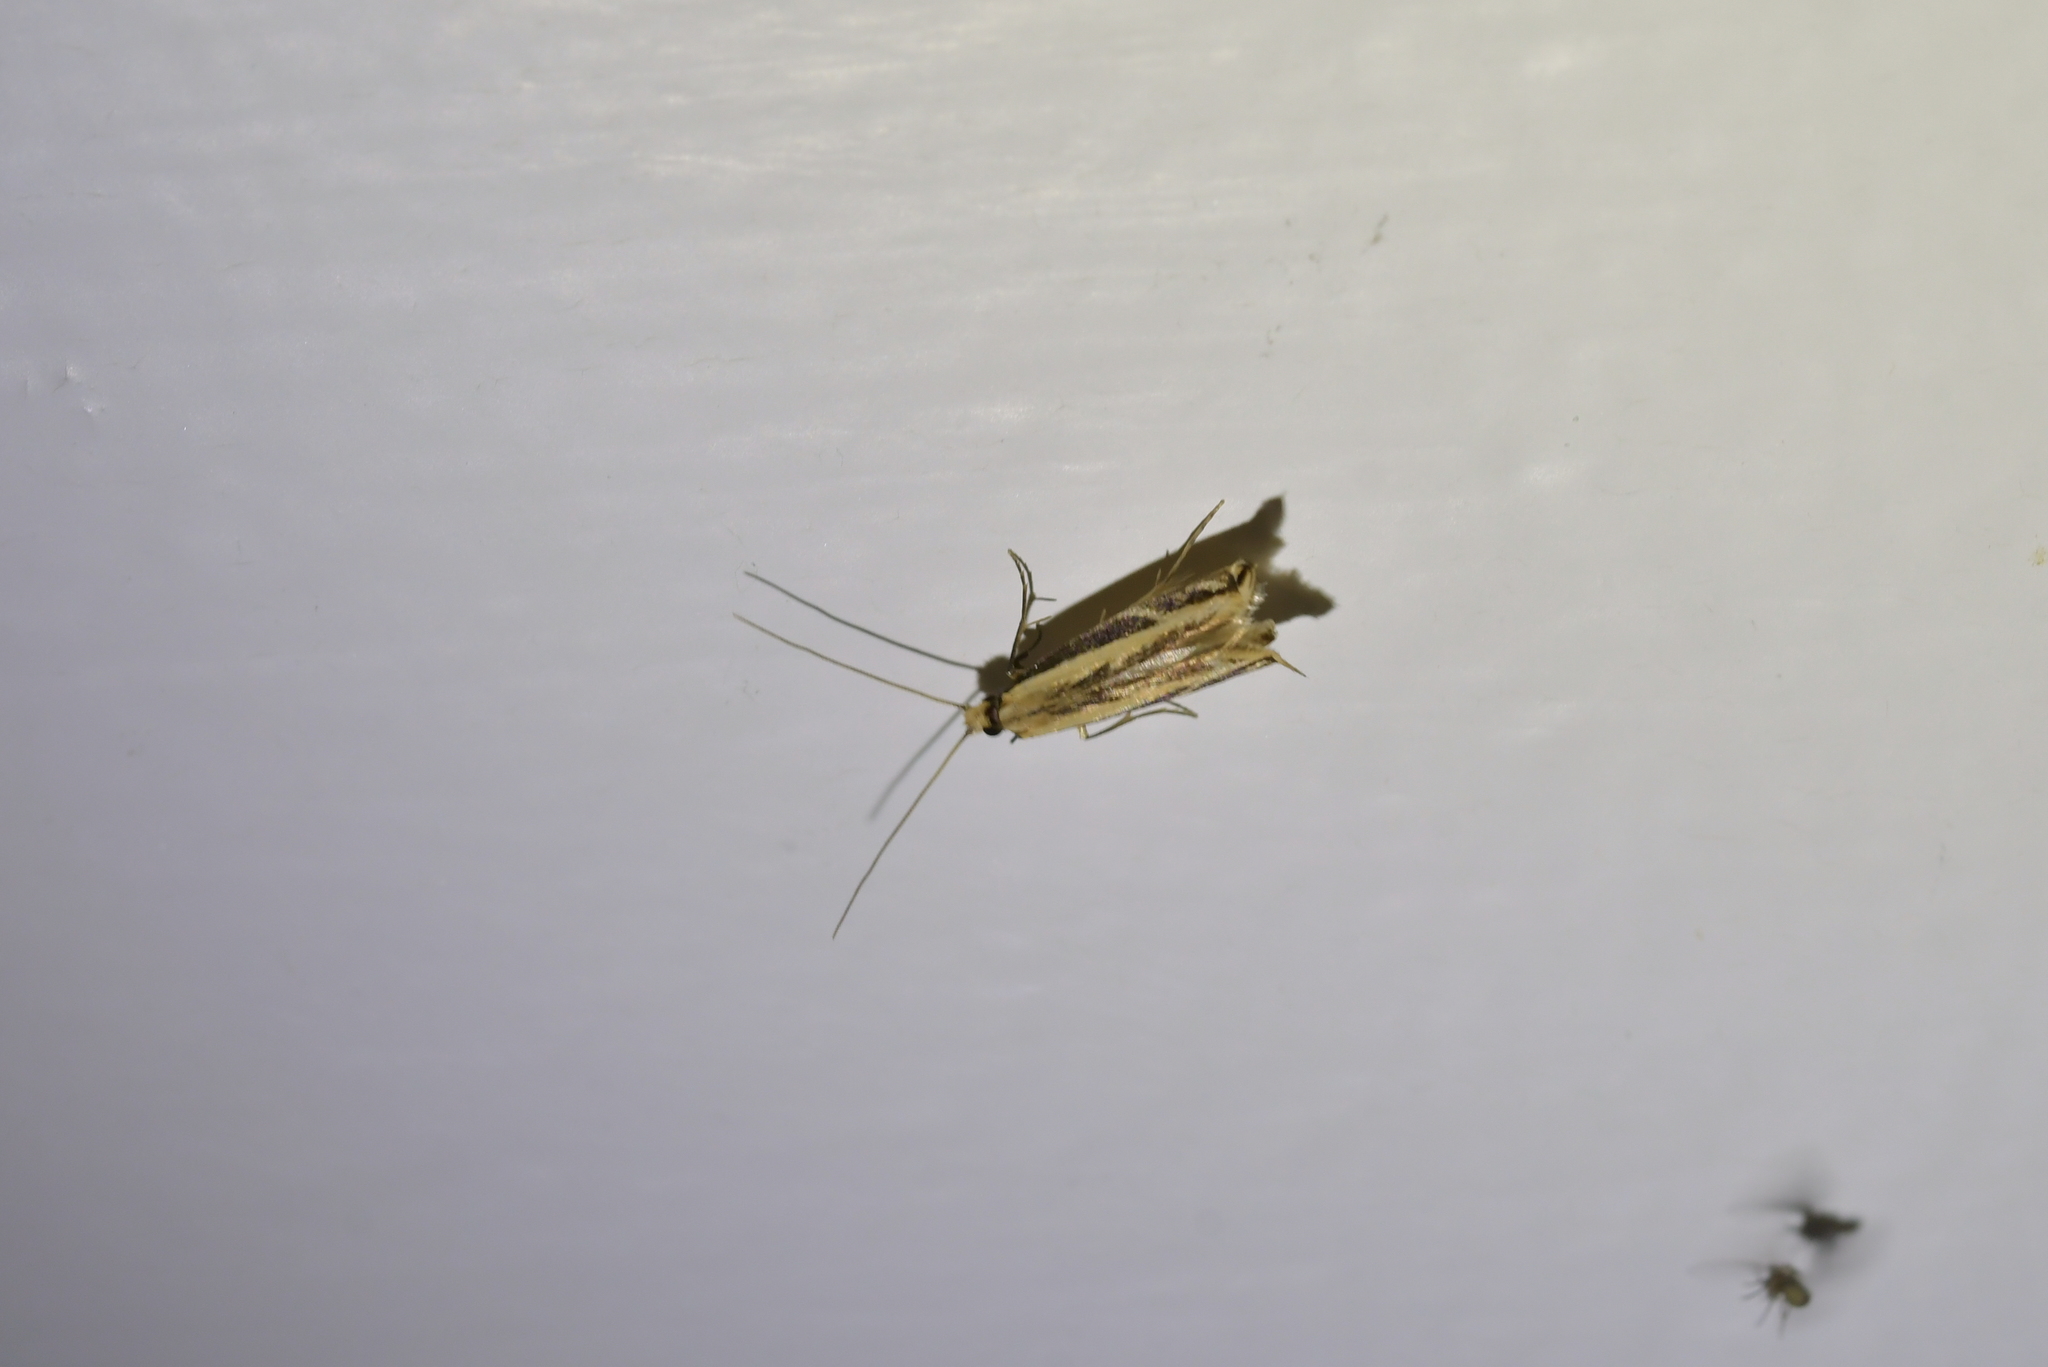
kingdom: Animalia
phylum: Arthropoda
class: Insecta
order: Lepidoptera
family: Tineidae
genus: Erechthias
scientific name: Erechthias terminella
